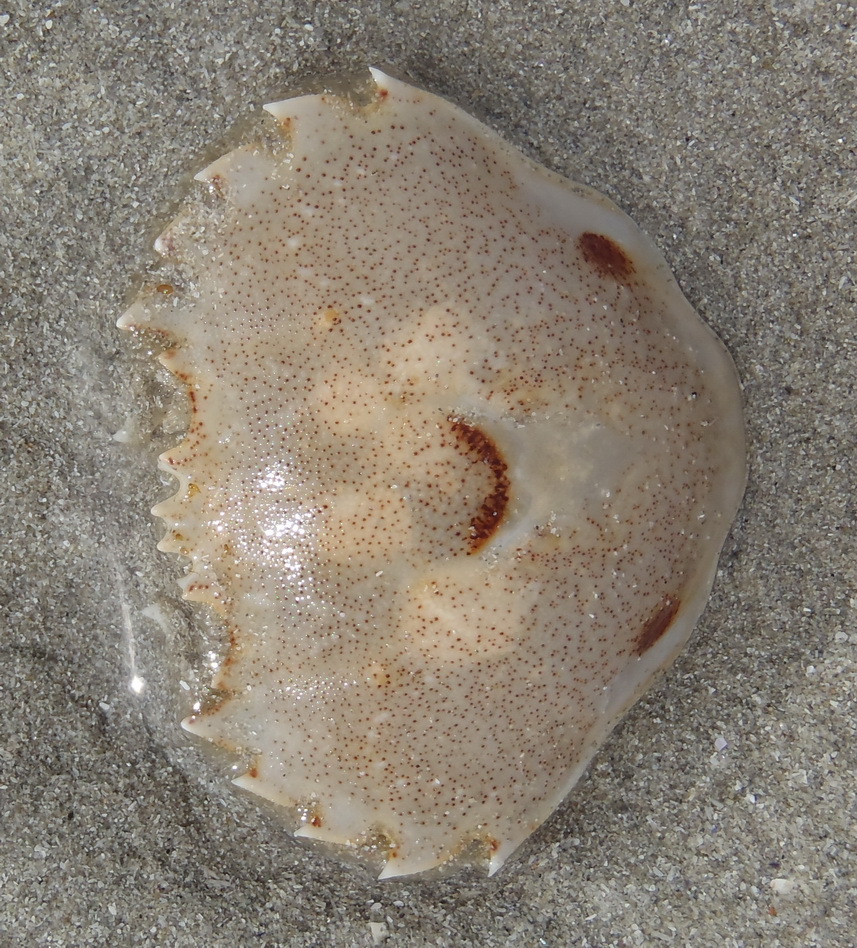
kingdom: Animalia
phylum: Arthropoda
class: Malacostraca
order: Decapoda
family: Ovalipidae
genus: Ovalipes
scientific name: Ovalipes trimaculatus
